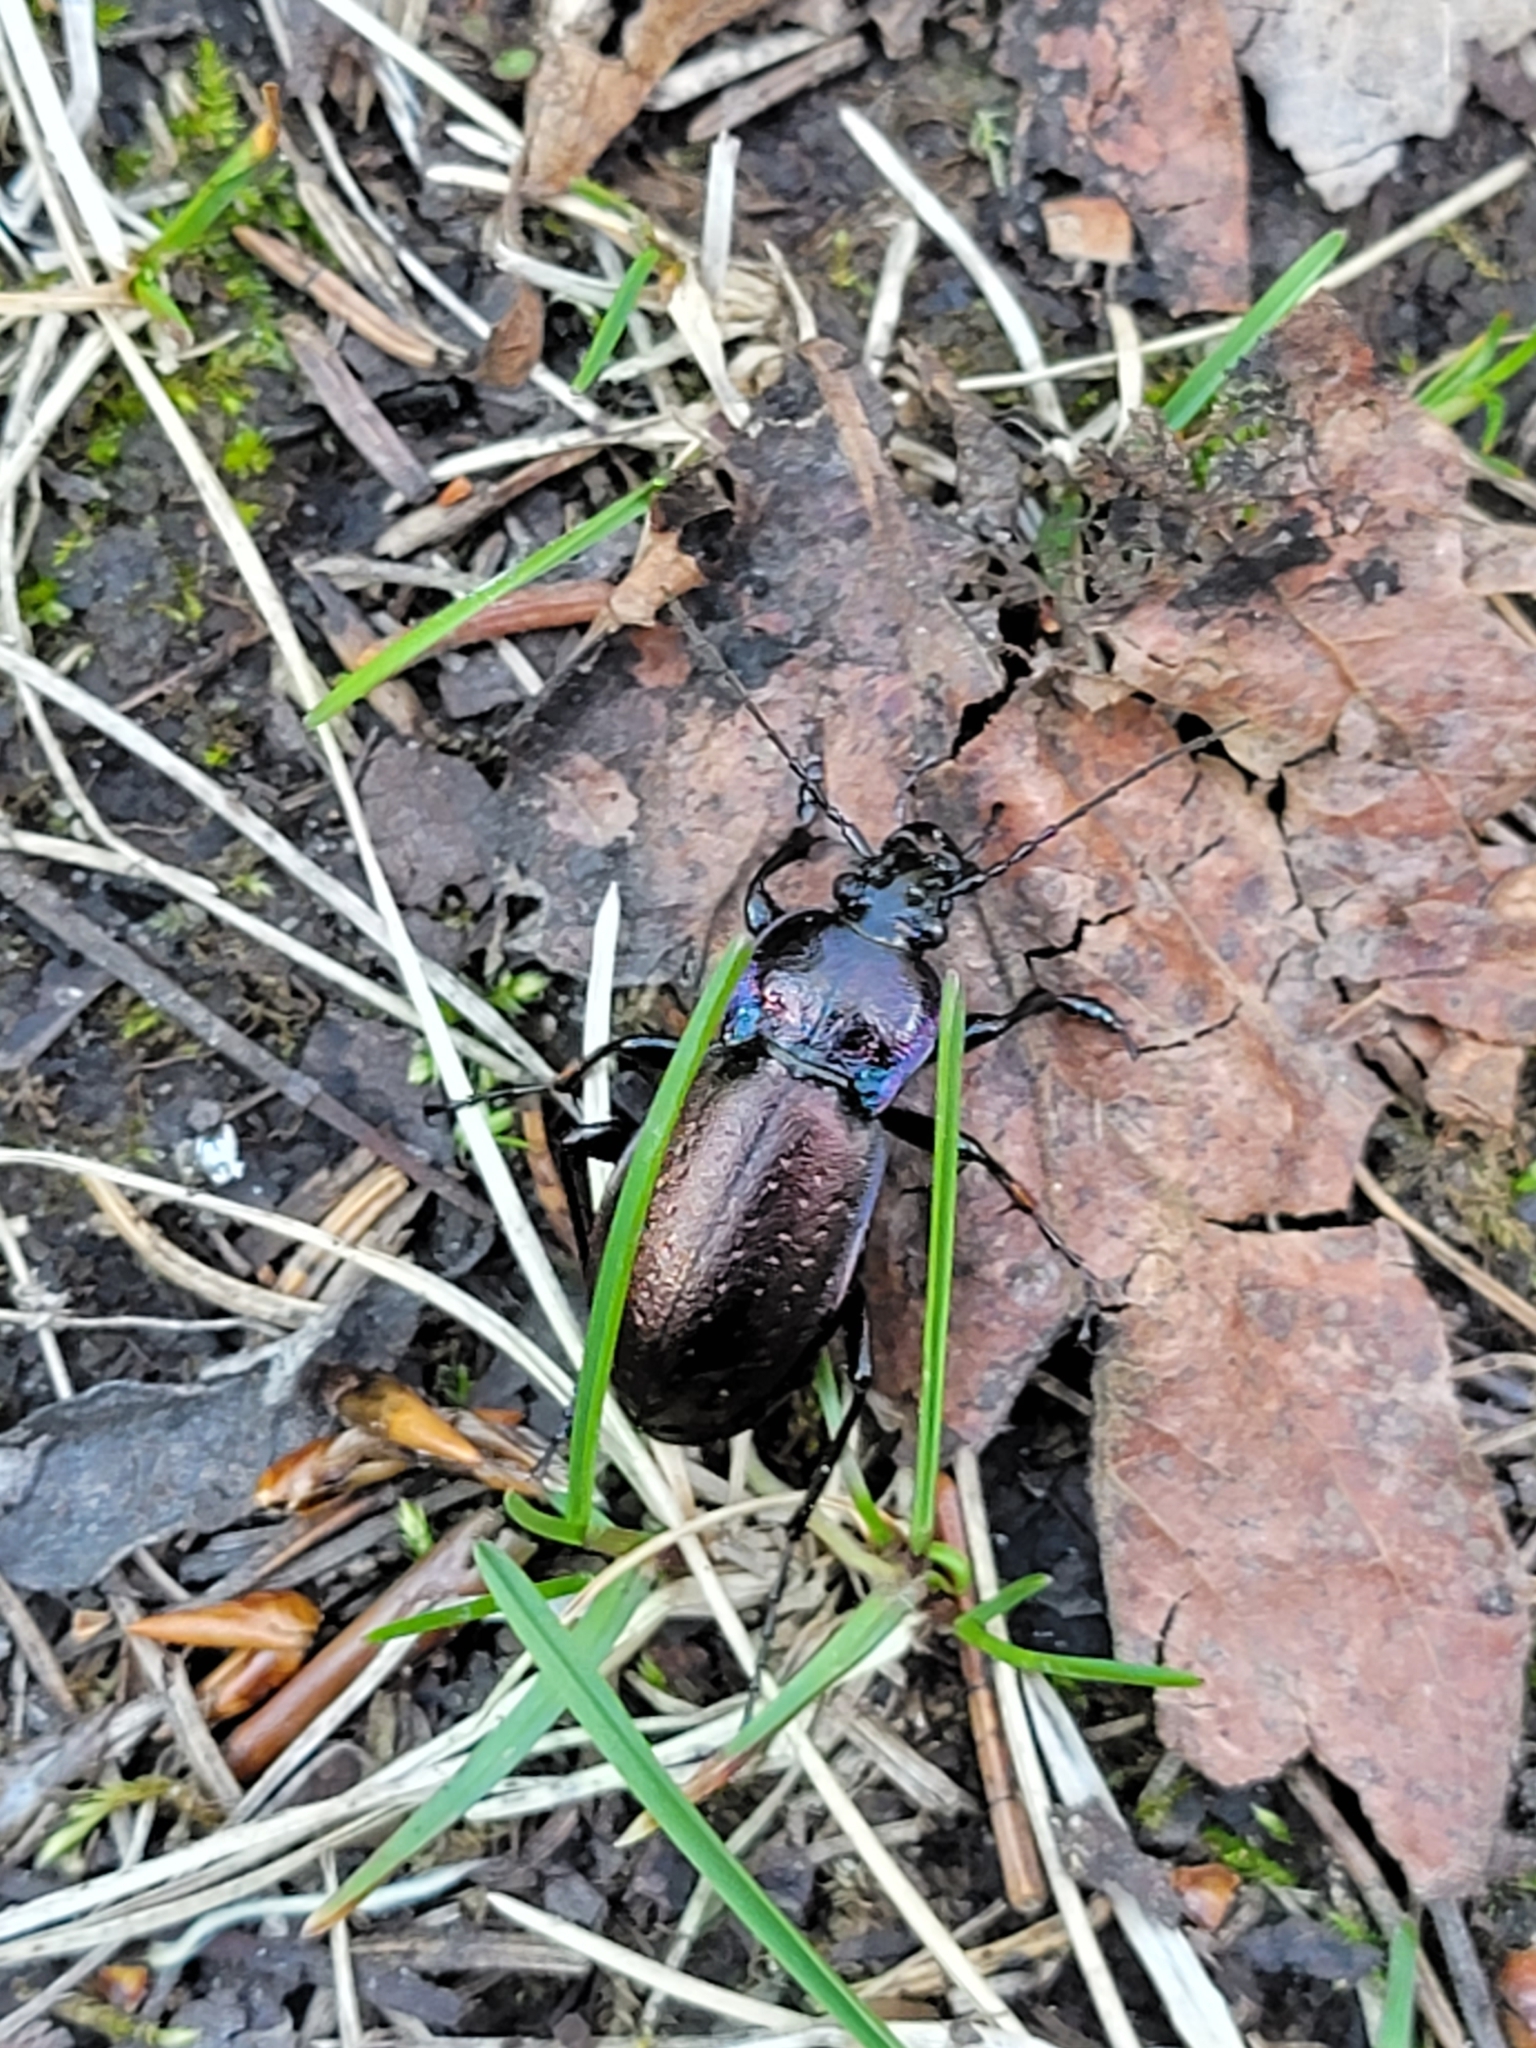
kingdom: Animalia
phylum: Arthropoda
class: Insecta
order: Coleoptera
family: Carabidae
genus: Carabus
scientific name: Carabus nemoralis
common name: European ground beetle
